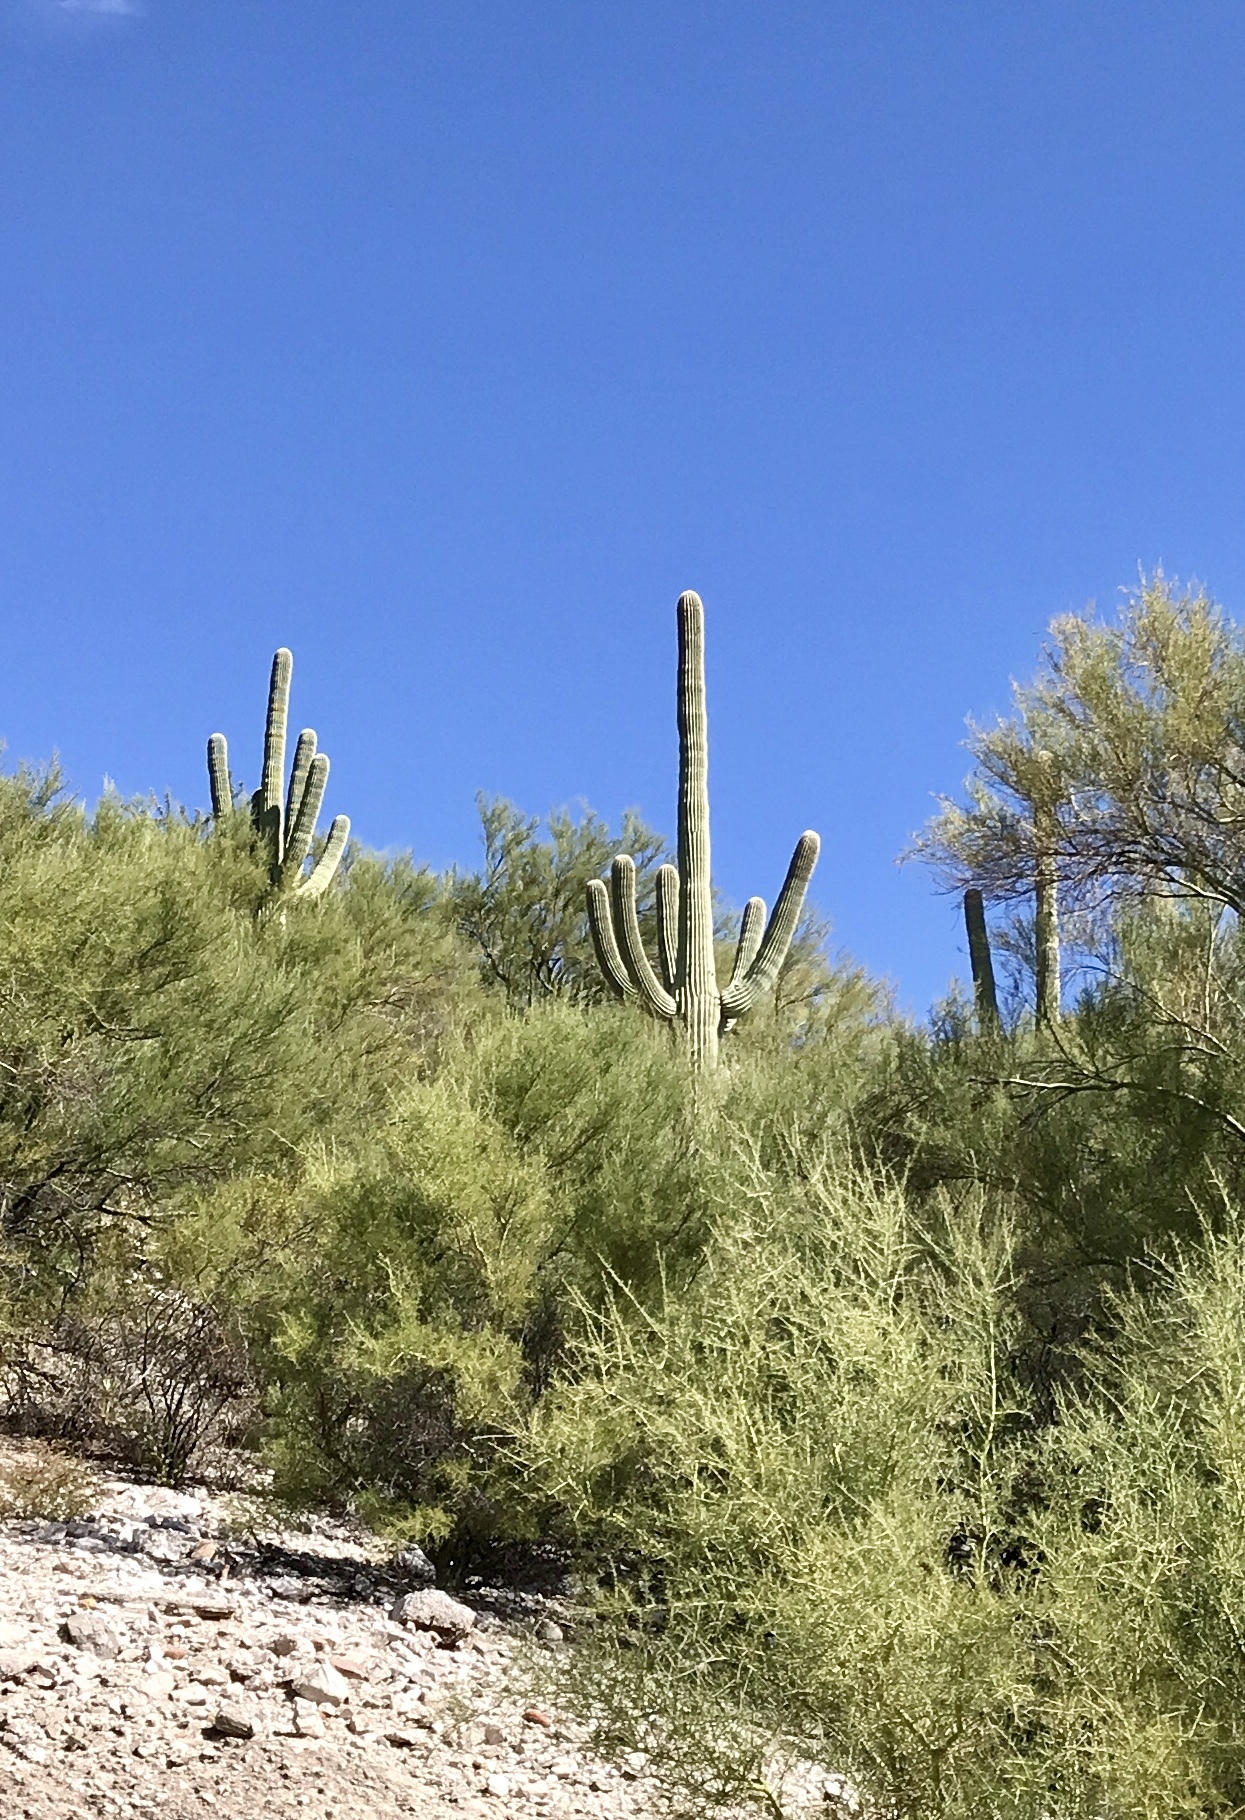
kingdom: Plantae
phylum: Tracheophyta
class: Magnoliopsida
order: Caryophyllales
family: Cactaceae
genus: Carnegiea
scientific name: Carnegiea gigantea
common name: Saguaro
